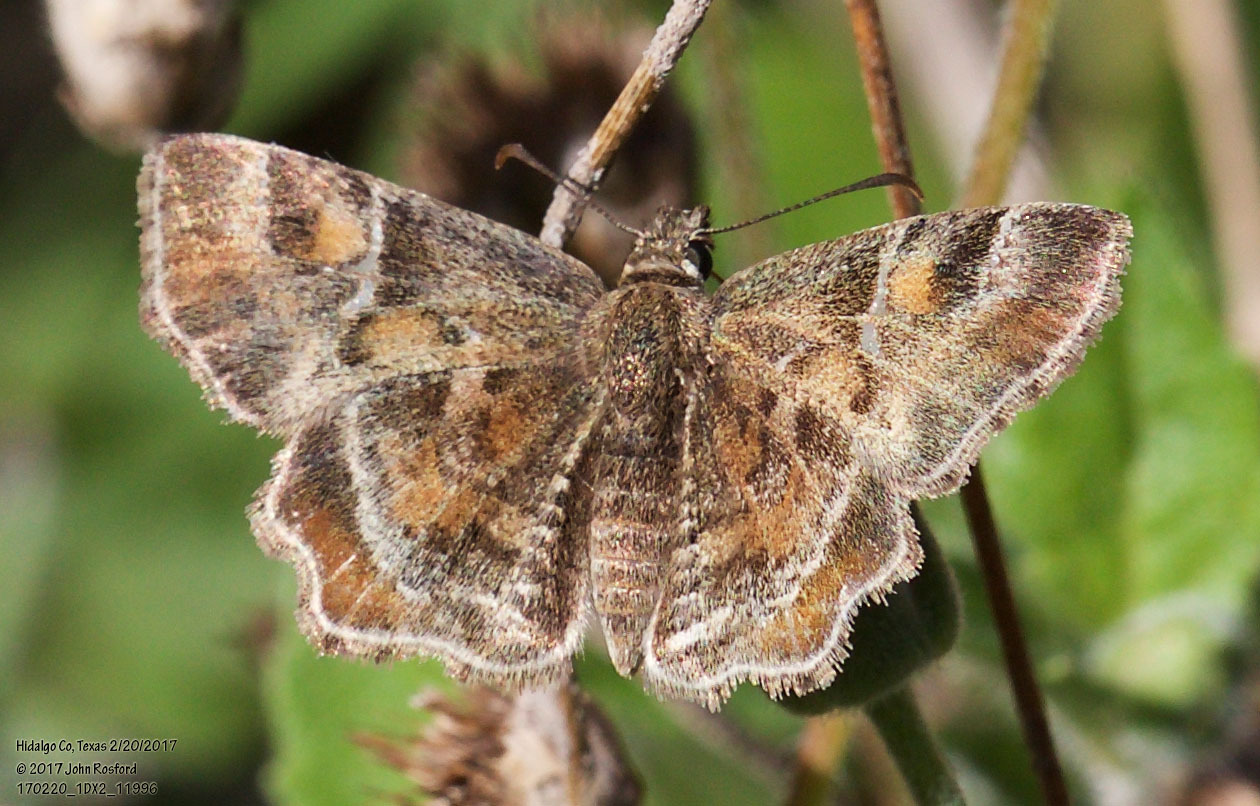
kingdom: Animalia
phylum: Arthropoda
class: Insecta
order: Lepidoptera
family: Hesperiidae
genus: Systasea
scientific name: Systasea pulverulenta
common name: Texas powdered skipper
